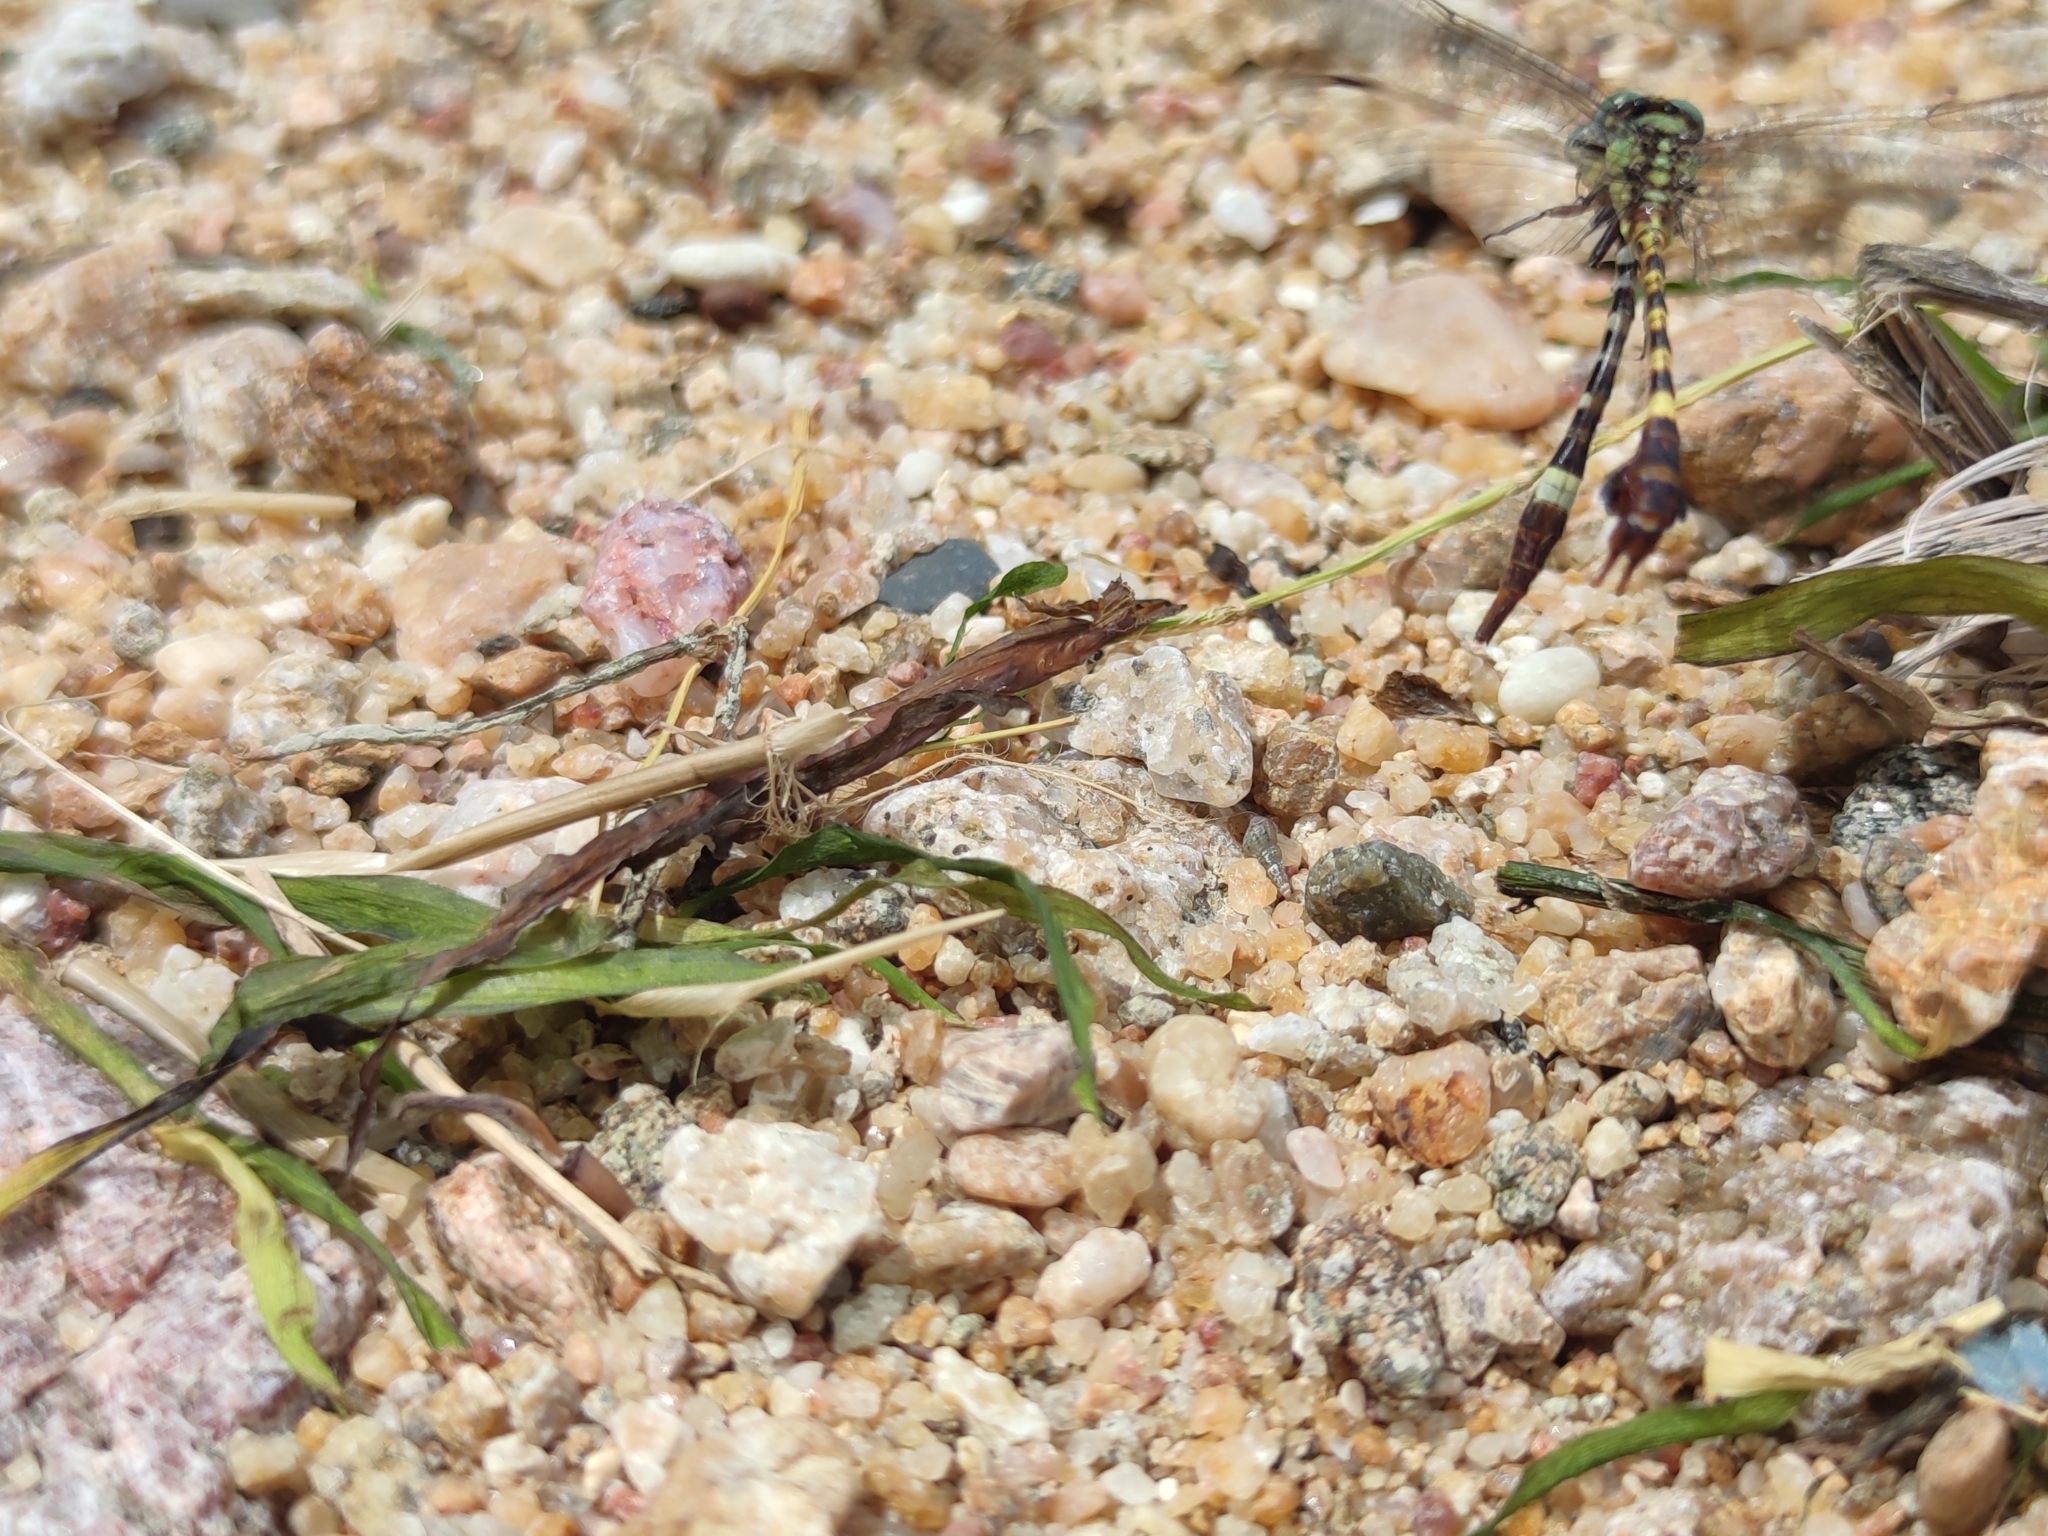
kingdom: Animalia
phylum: Arthropoda
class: Insecta
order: Odonata
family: Gomphidae
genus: Lestinogomphus
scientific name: Lestinogomphus angustus
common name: Spined fairytail
